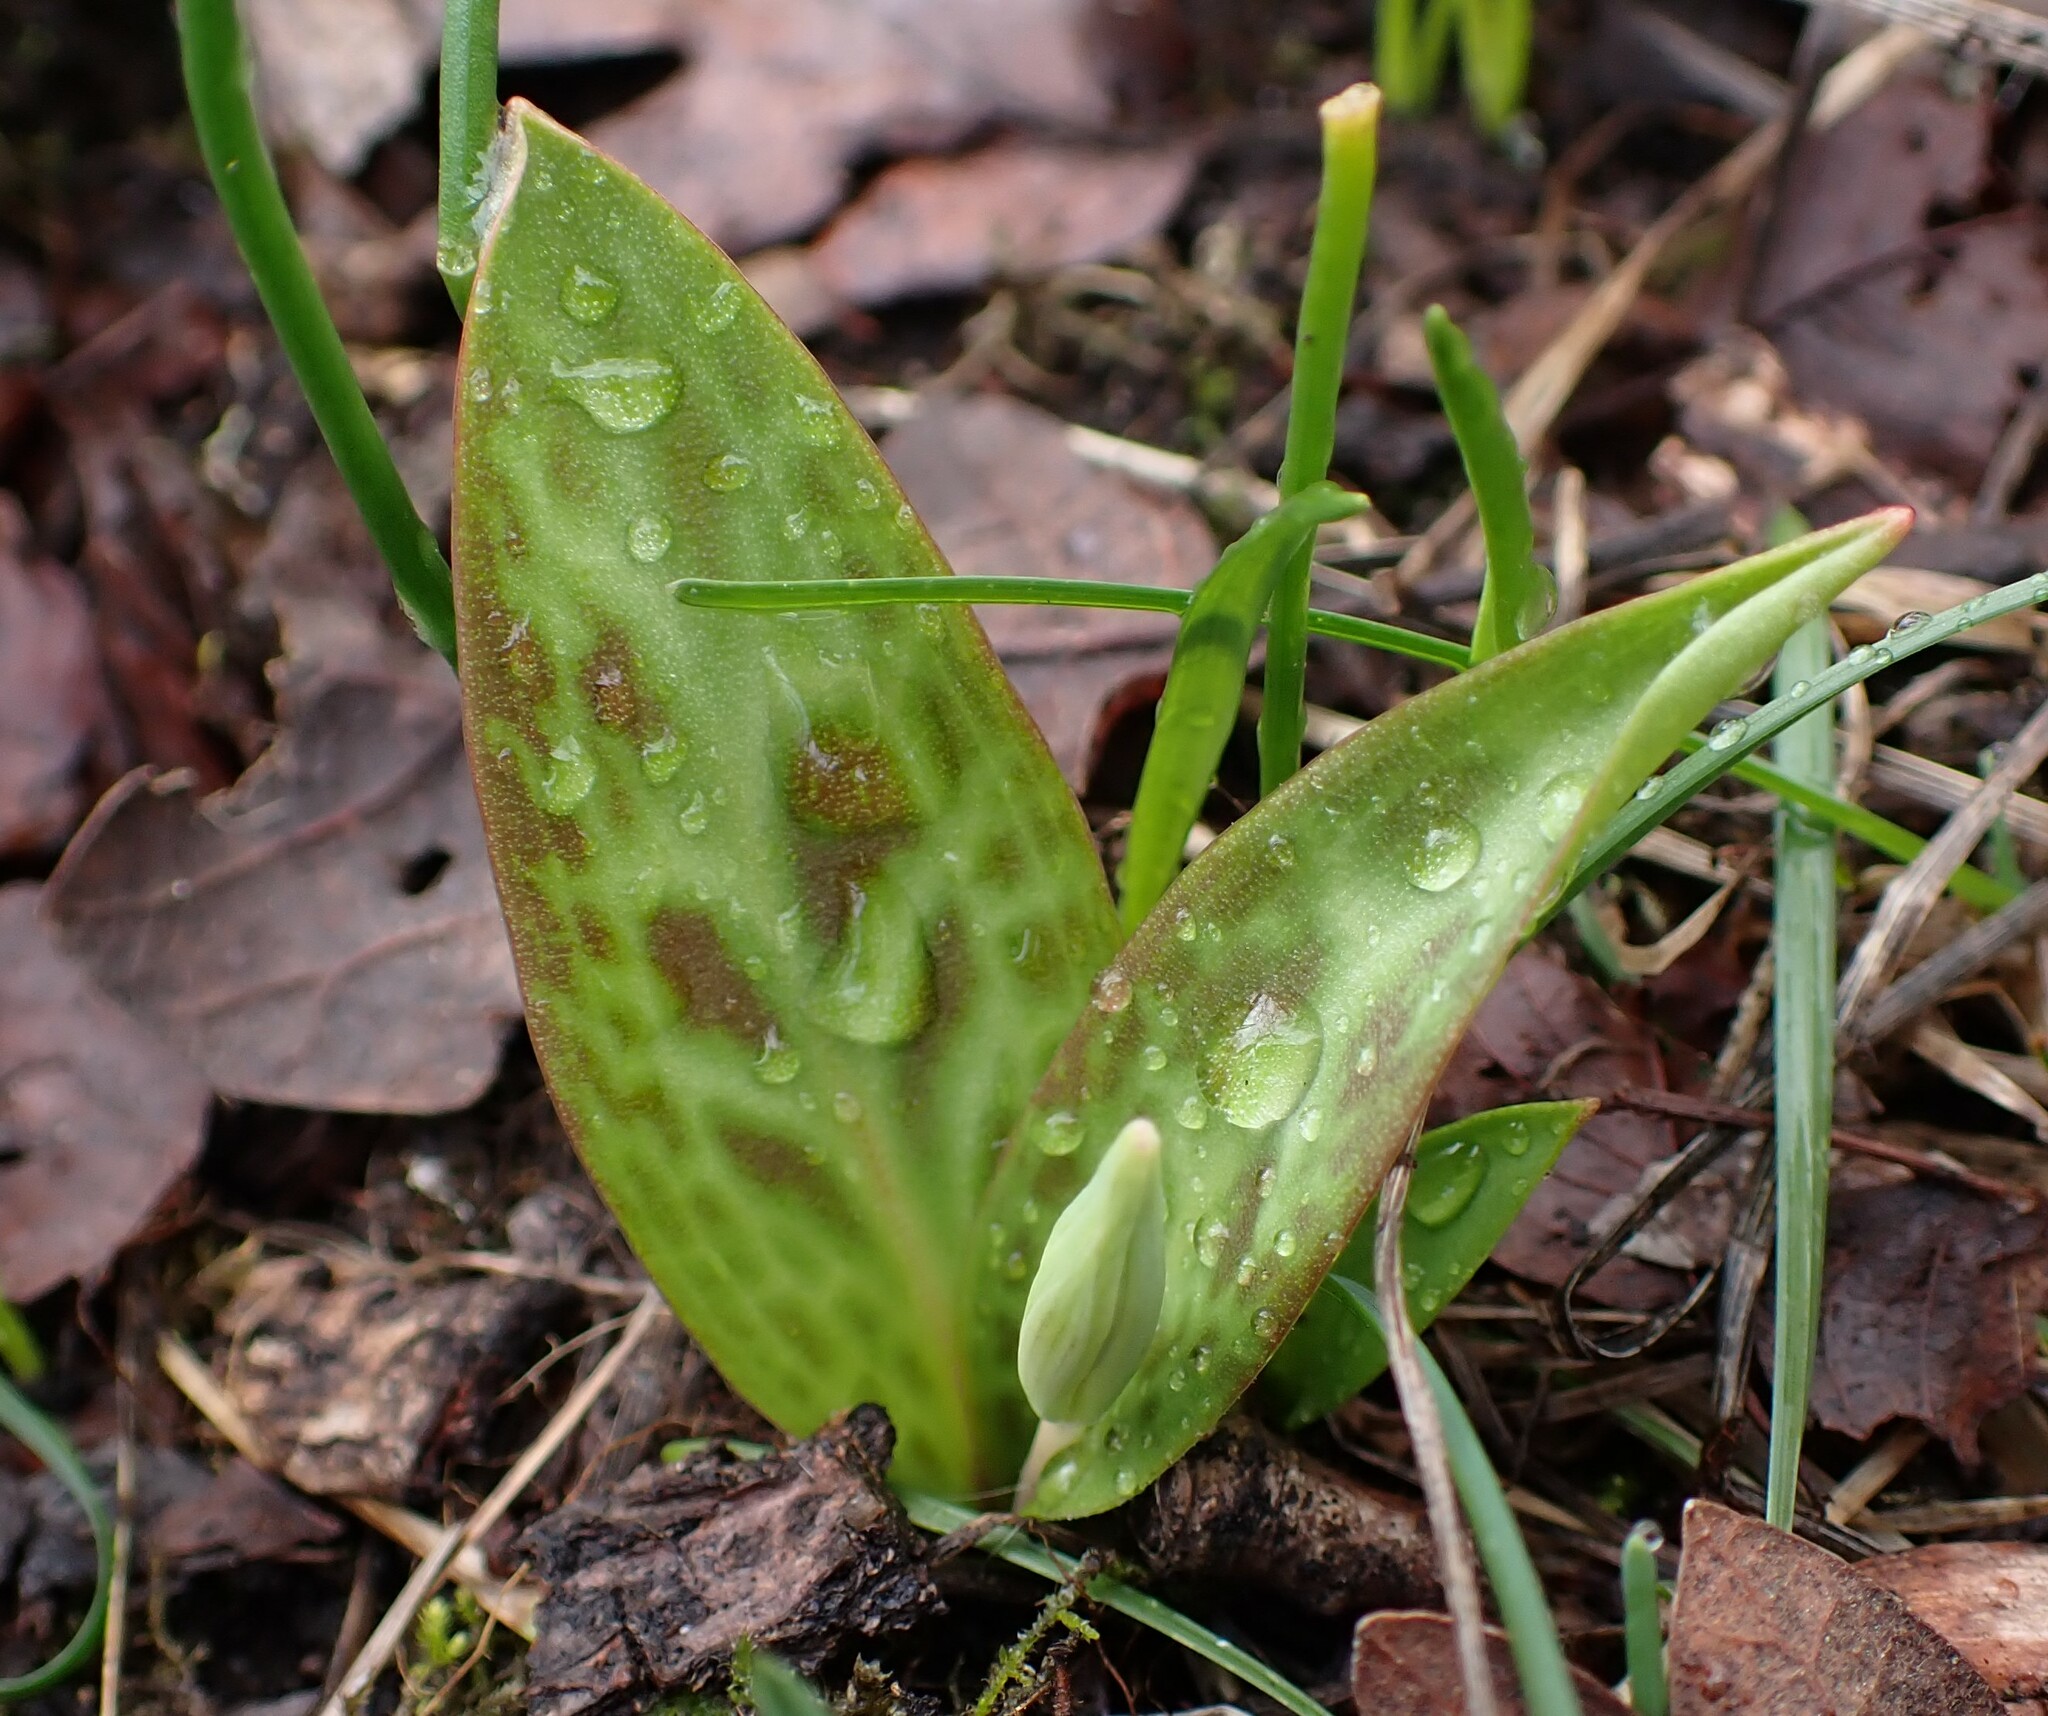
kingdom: Plantae
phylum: Tracheophyta
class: Liliopsida
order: Liliales
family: Liliaceae
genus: Erythronium
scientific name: Erythronium oregonum
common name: Giant adder's-tongue
